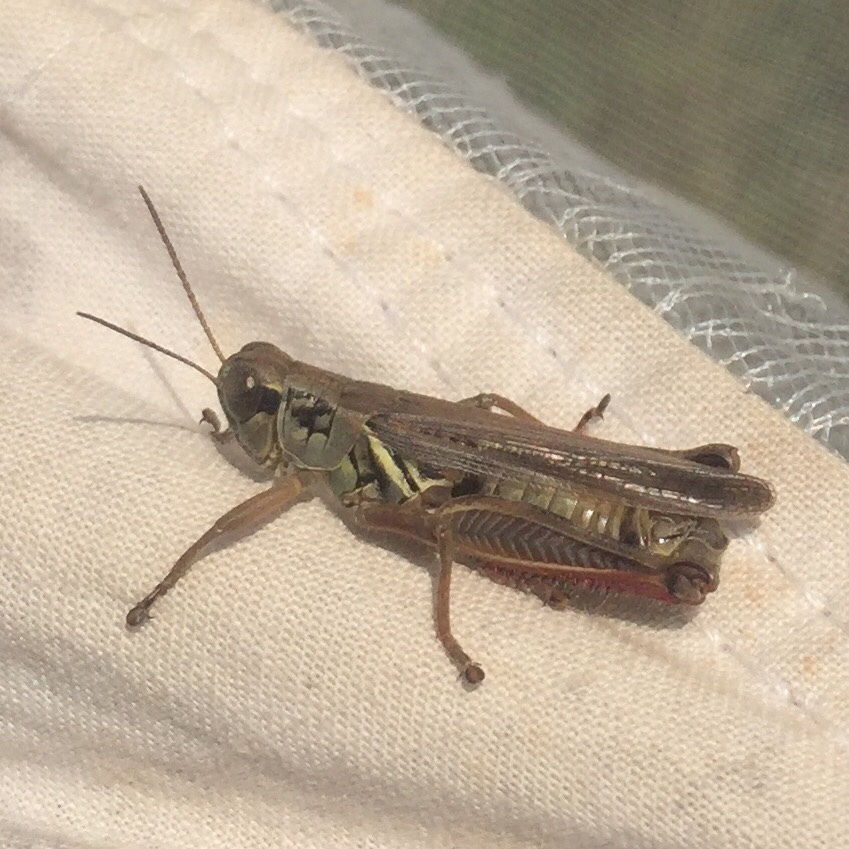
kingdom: Animalia
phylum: Arthropoda
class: Insecta
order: Orthoptera
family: Acrididae
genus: Melanoplus
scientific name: Melanoplus femurrubrum
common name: Red-legged grasshopper
